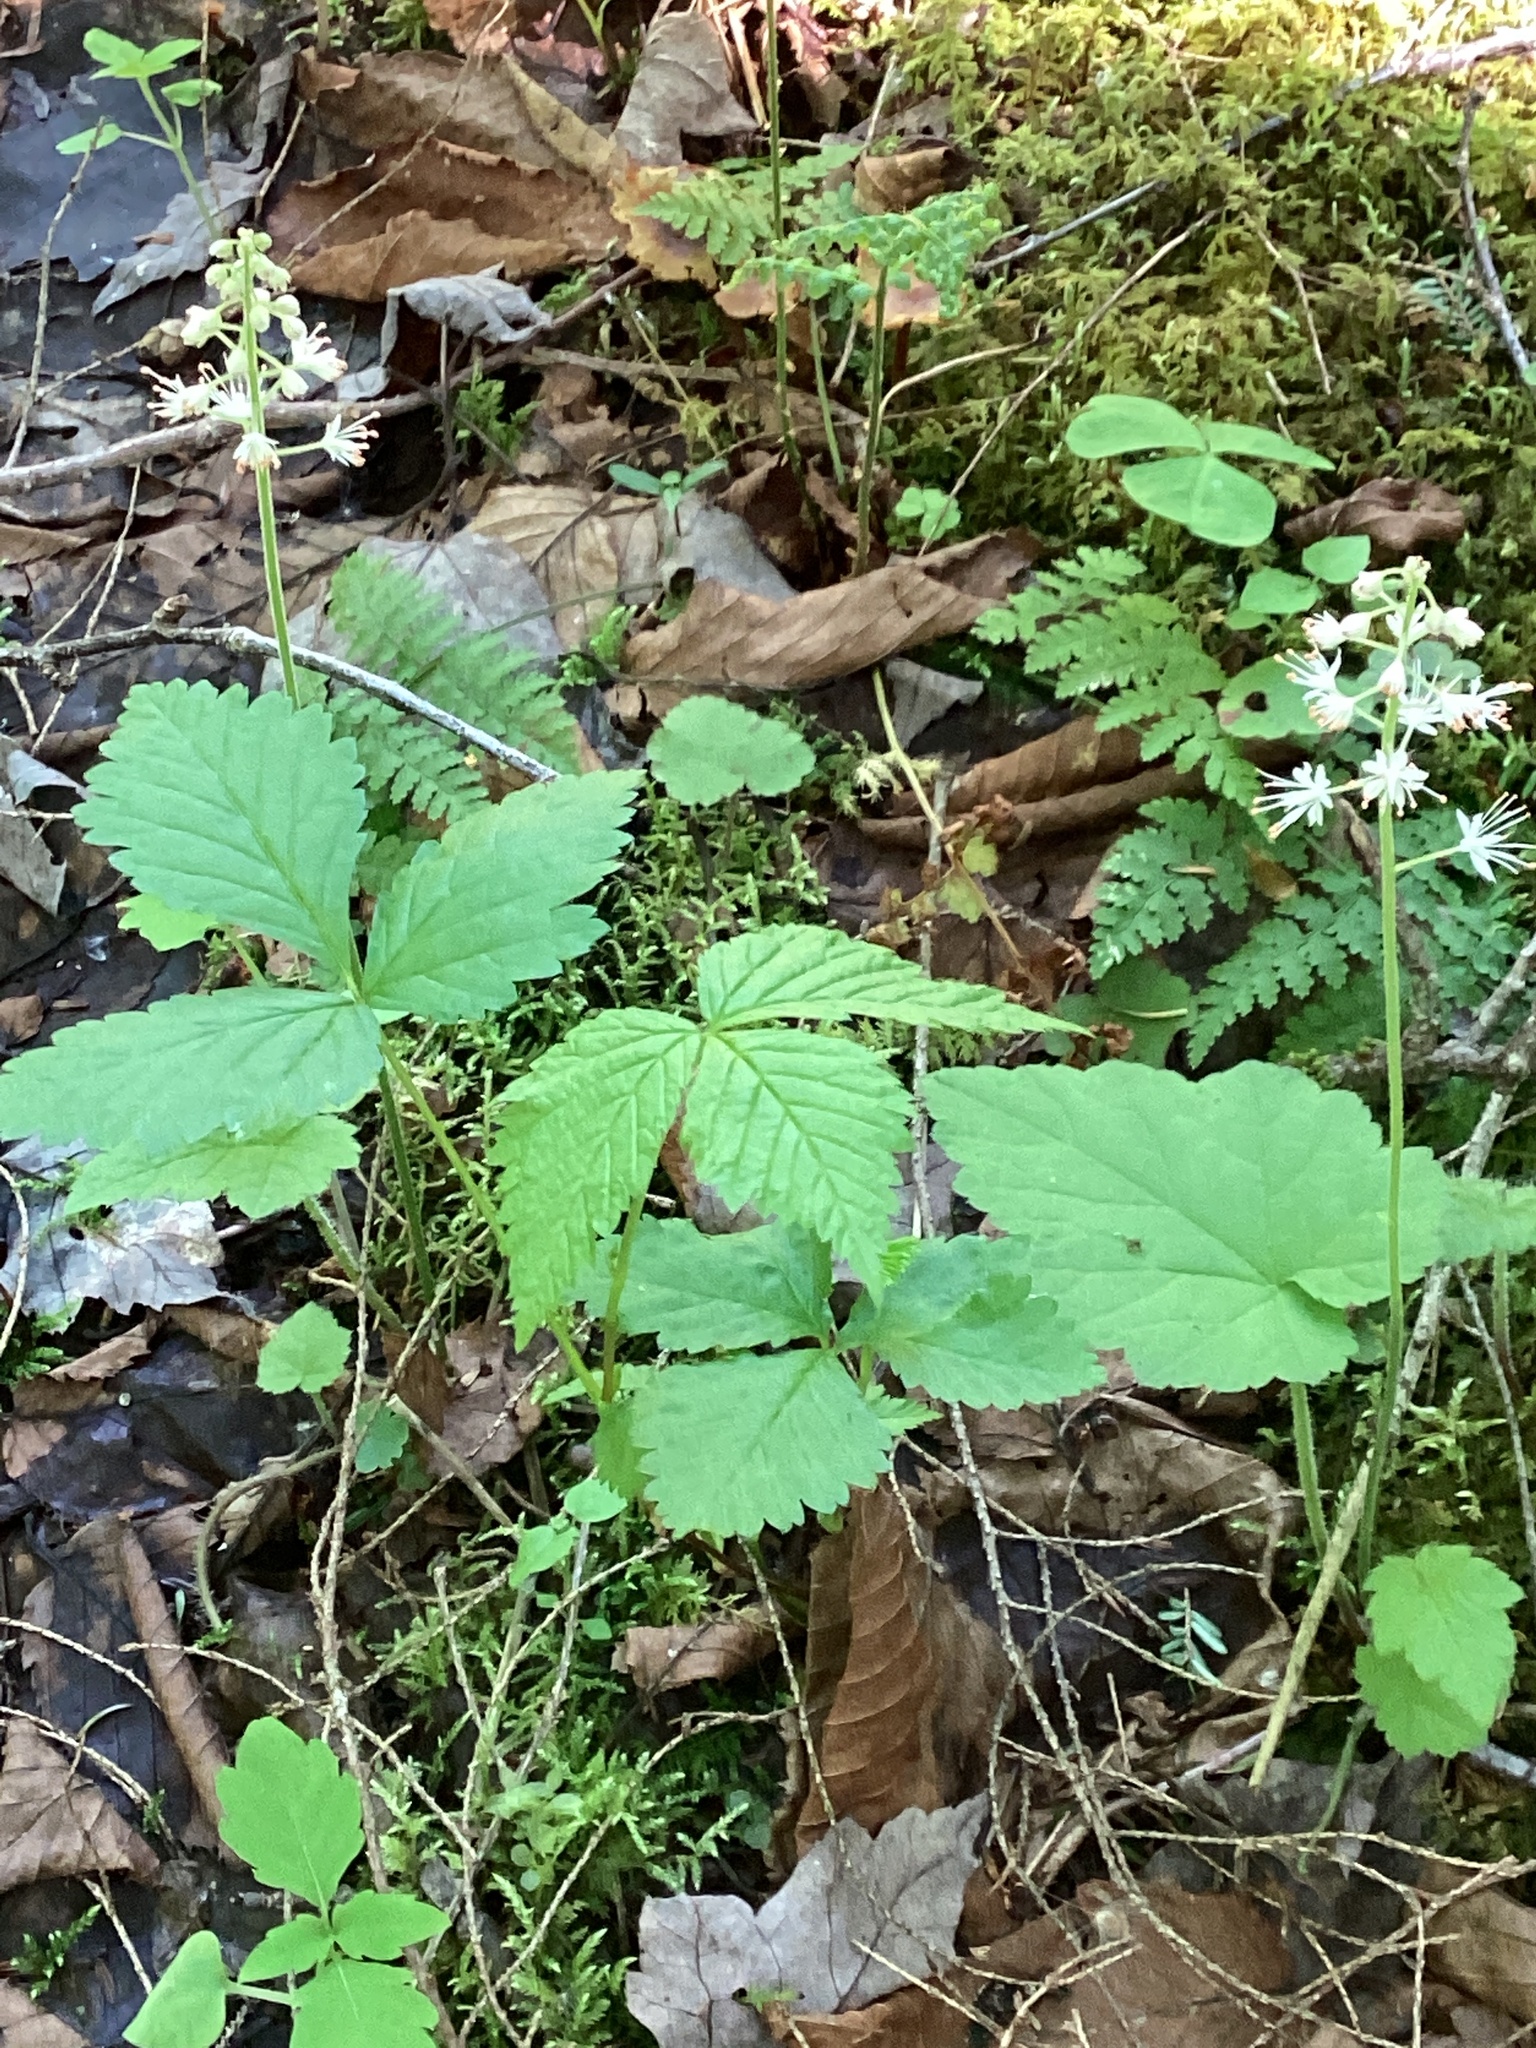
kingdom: Plantae
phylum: Tracheophyta
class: Magnoliopsida
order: Saxifragales
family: Saxifragaceae
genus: Tiarella
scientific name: Tiarella stolonifera
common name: Stoloniferous foamflower
